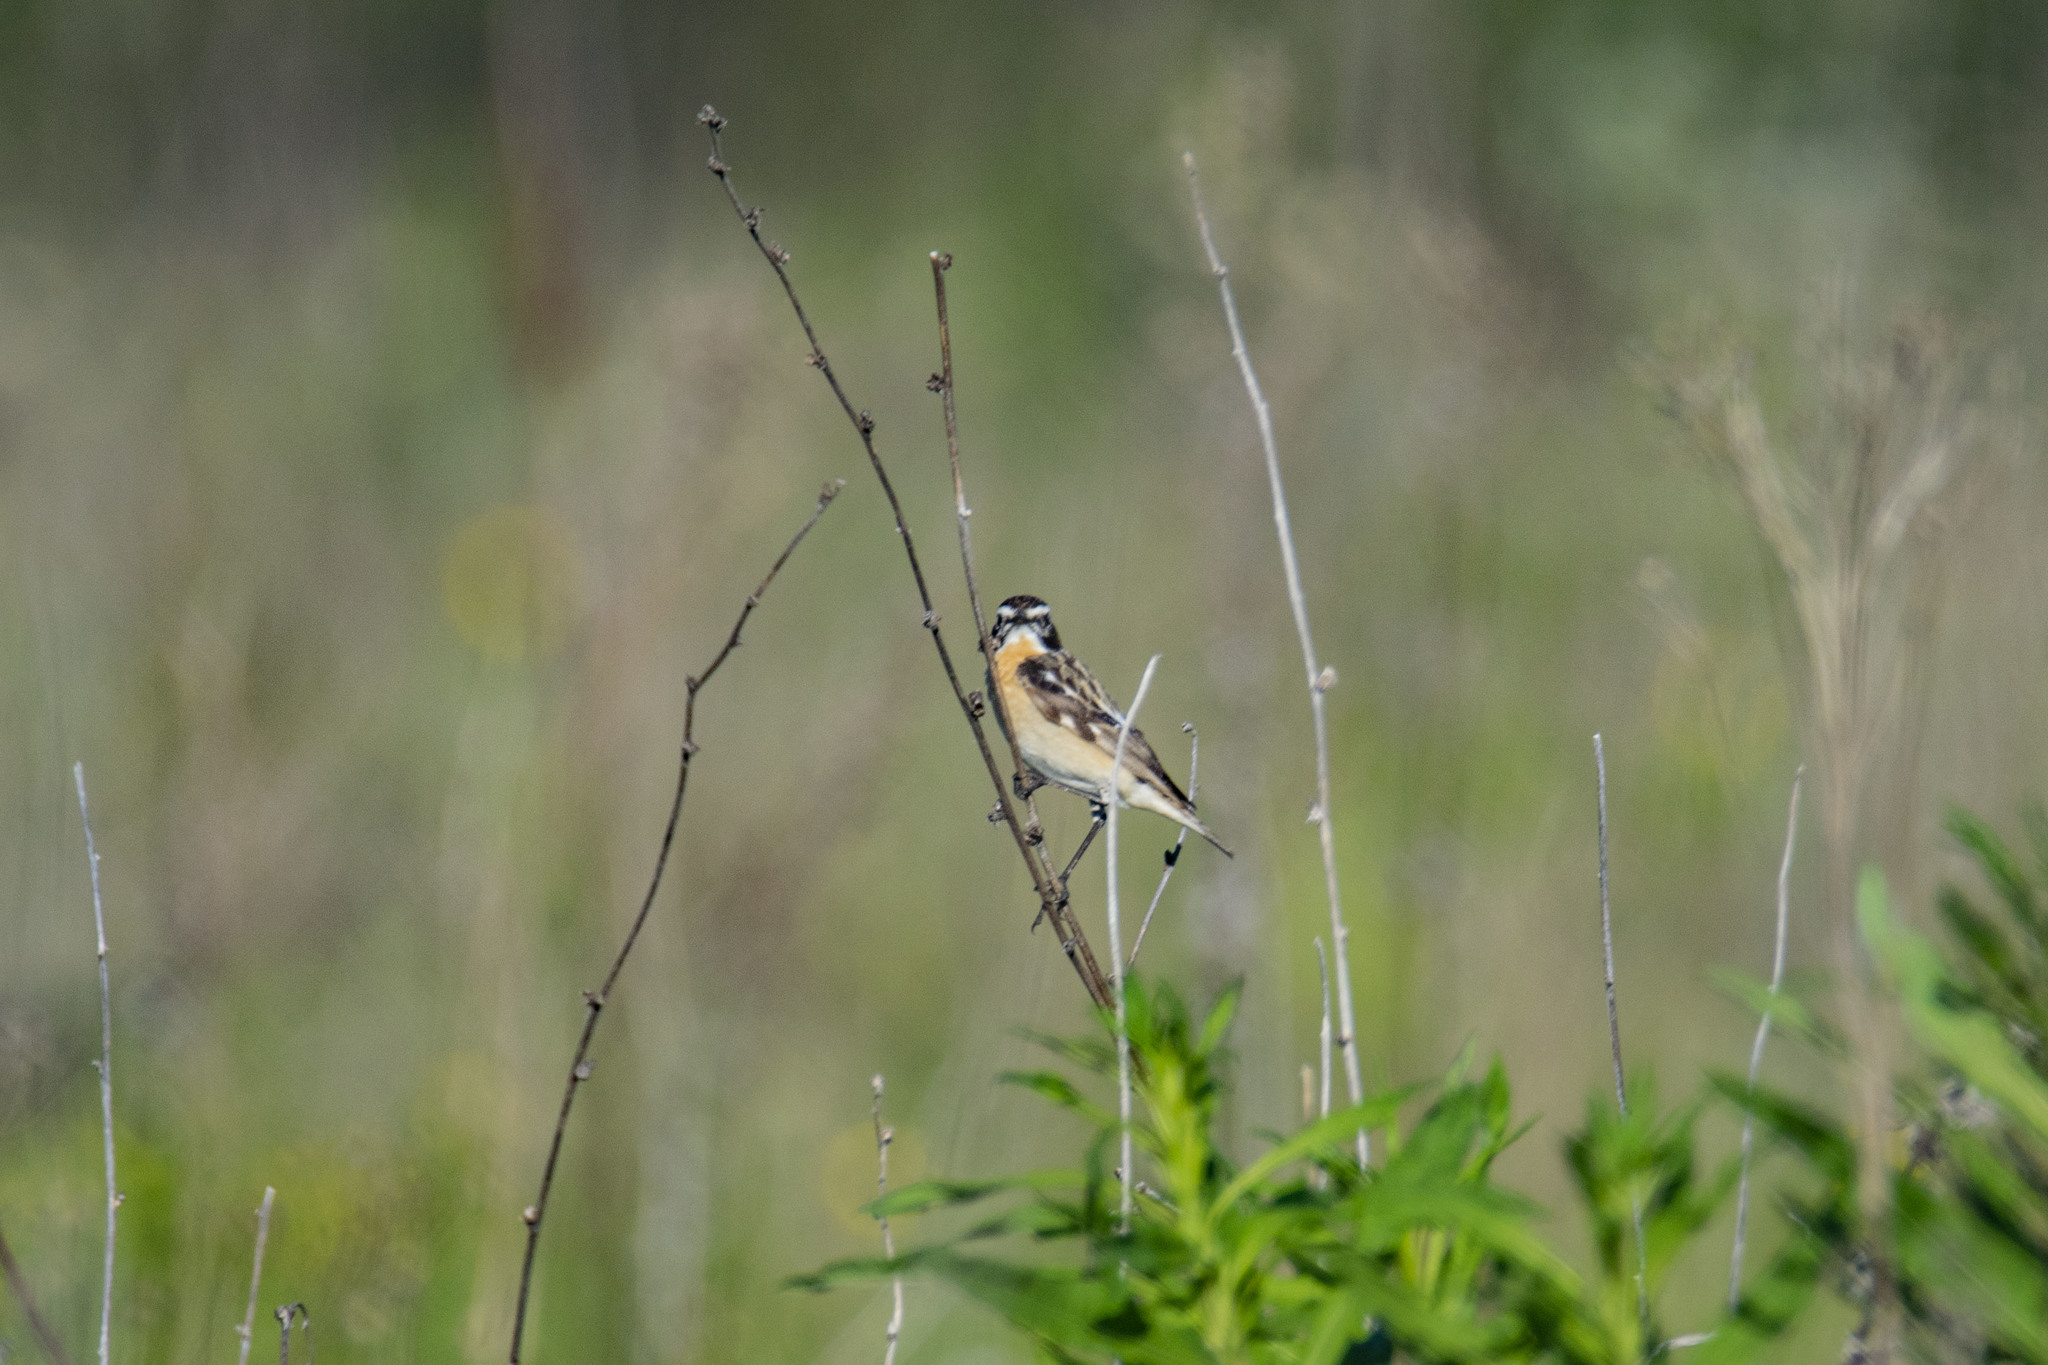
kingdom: Animalia
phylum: Chordata
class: Aves
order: Passeriformes
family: Muscicapidae
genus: Saxicola
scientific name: Saxicola rubetra
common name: Whinchat
